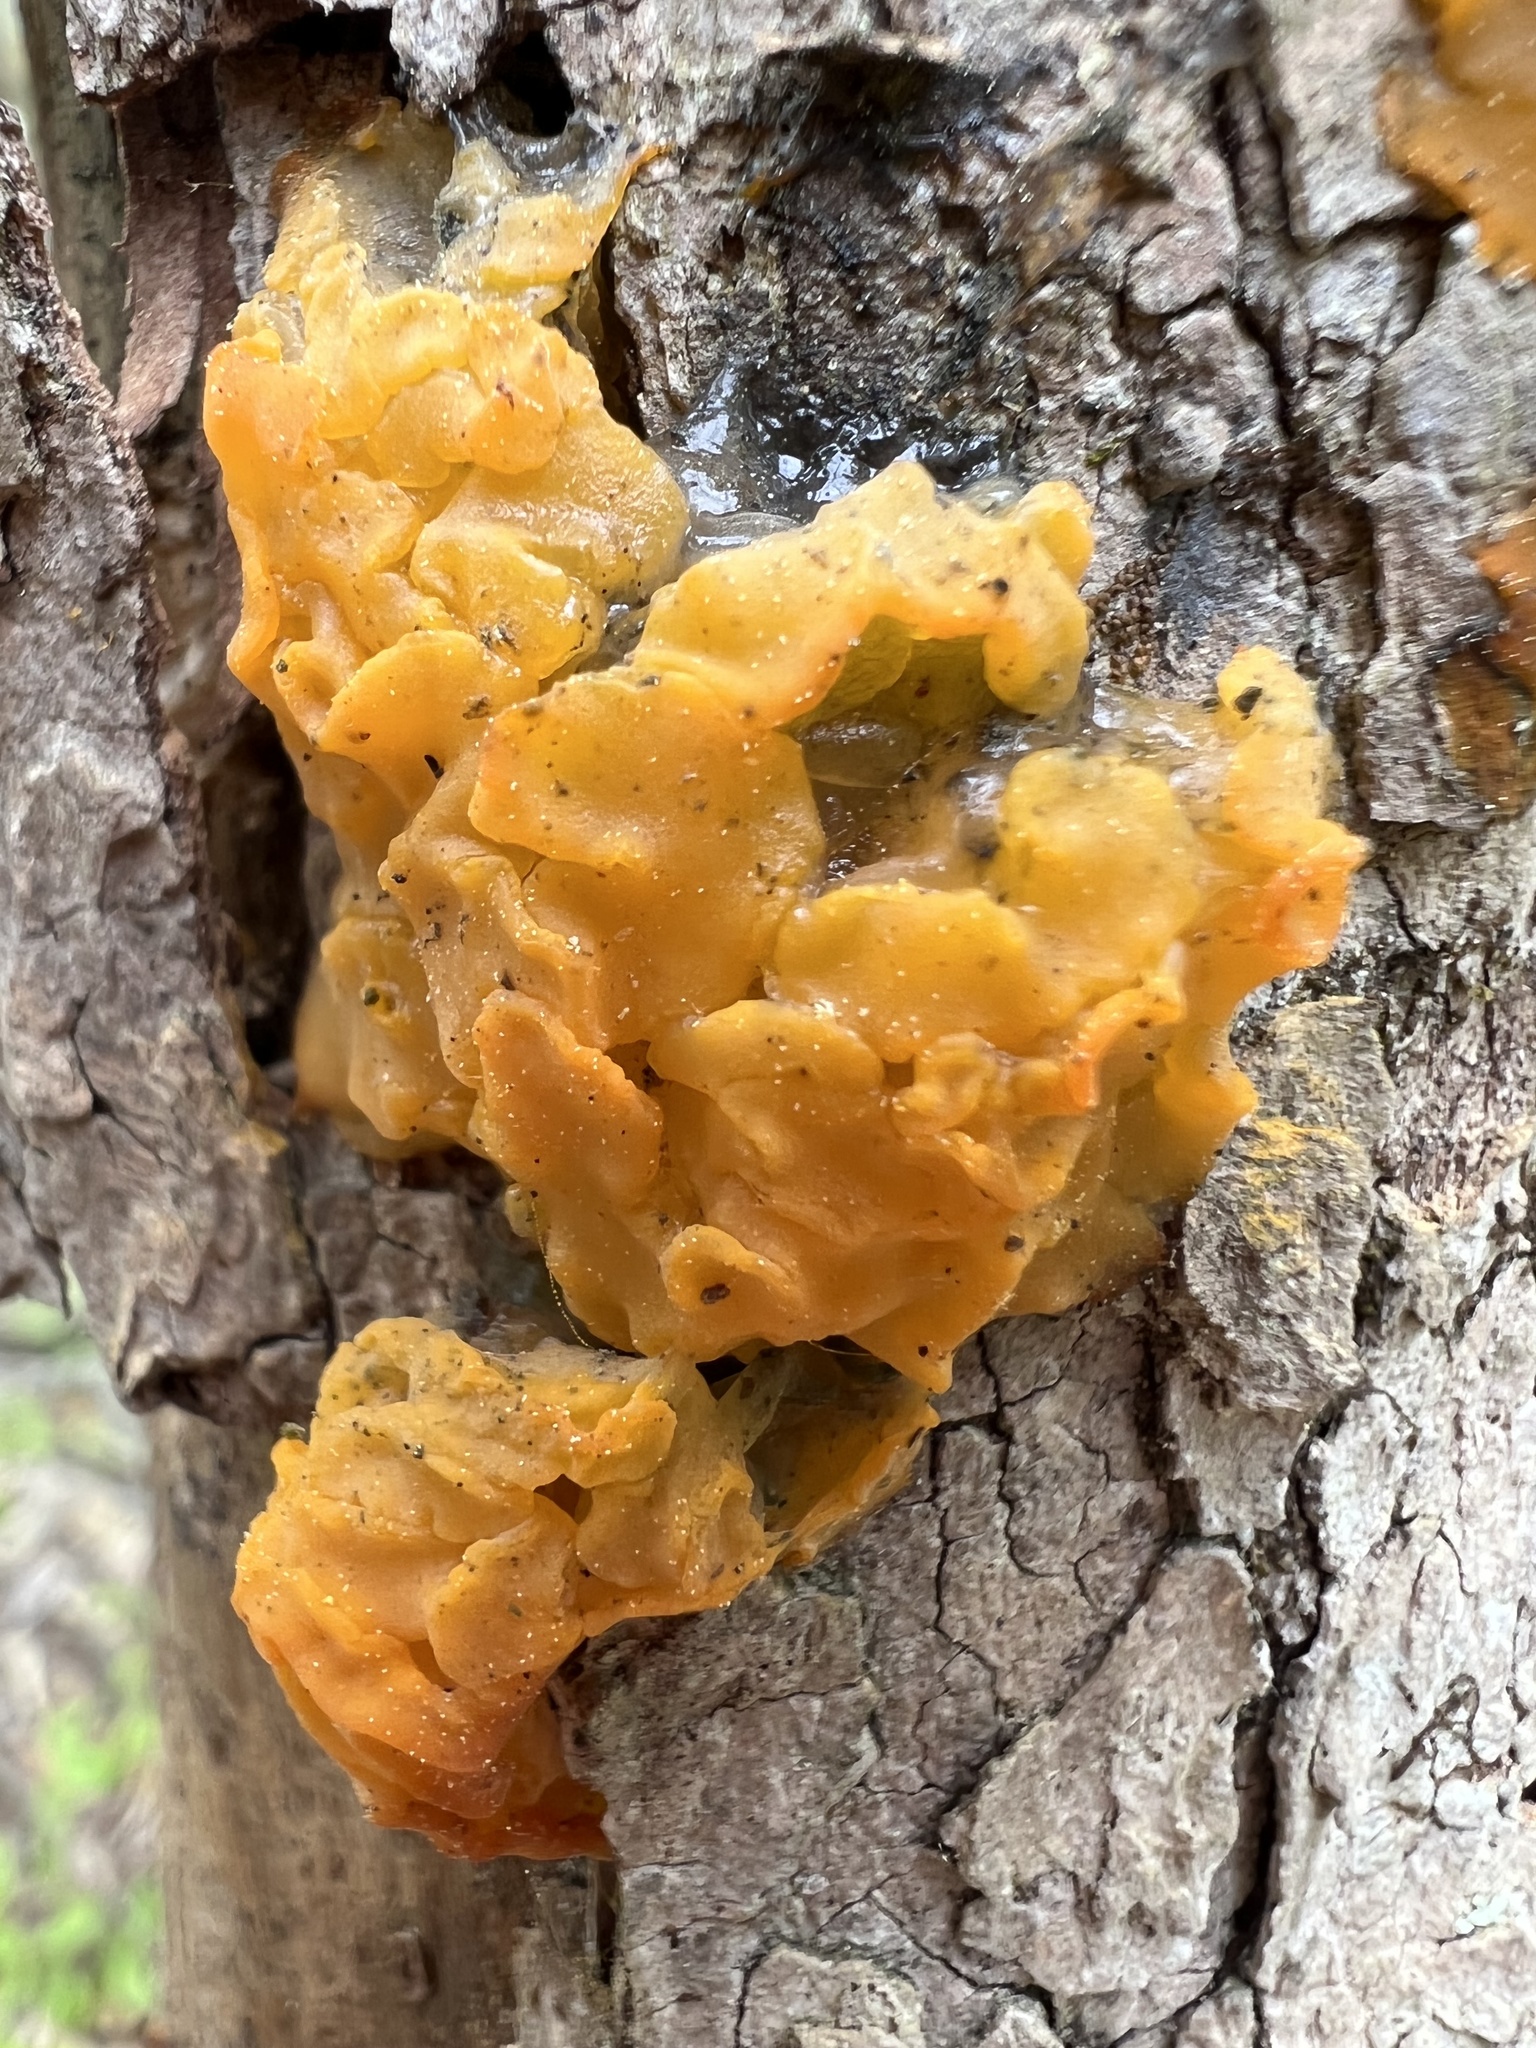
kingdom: Fungi
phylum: Basidiomycota
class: Tremellomycetes
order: Tremellales
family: Tremellaceae
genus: Tremella
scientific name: Tremella mesenterica
